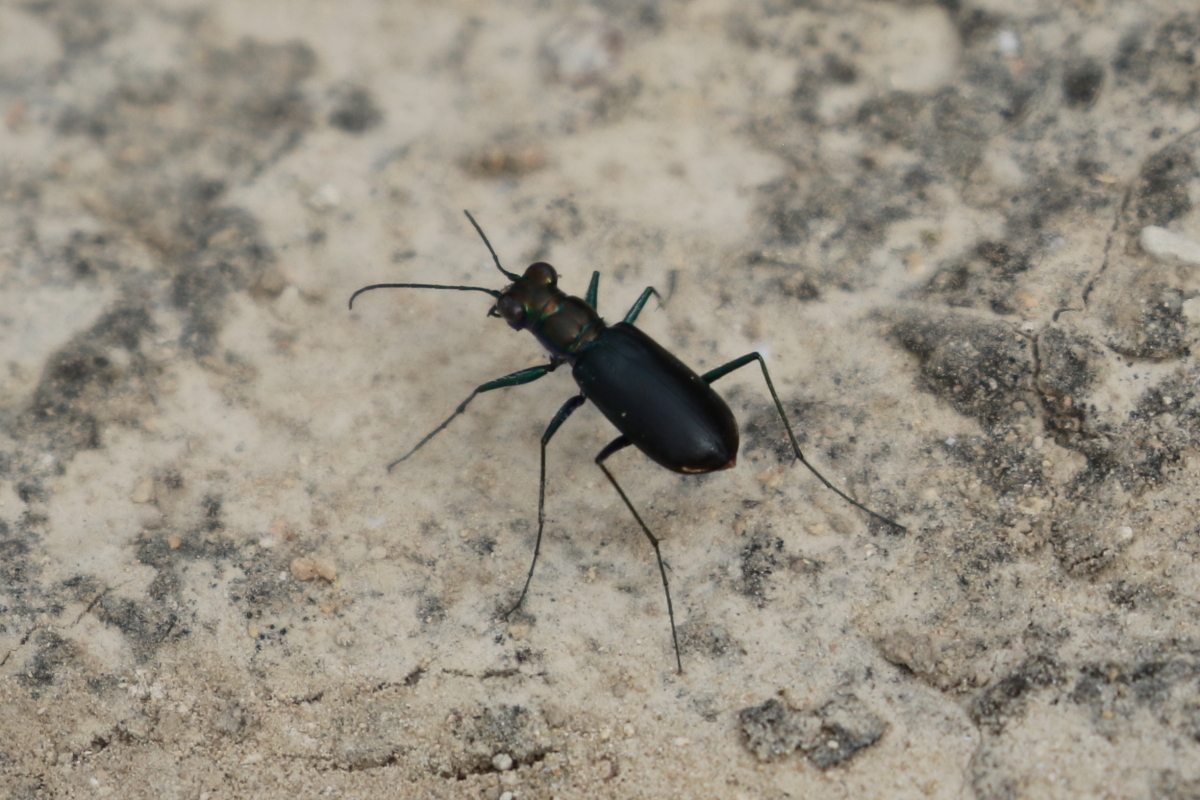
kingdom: Animalia
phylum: Arthropoda
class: Insecta
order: Coleoptera
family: Carabidae
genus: Cicindela
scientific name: Cicindela politula
